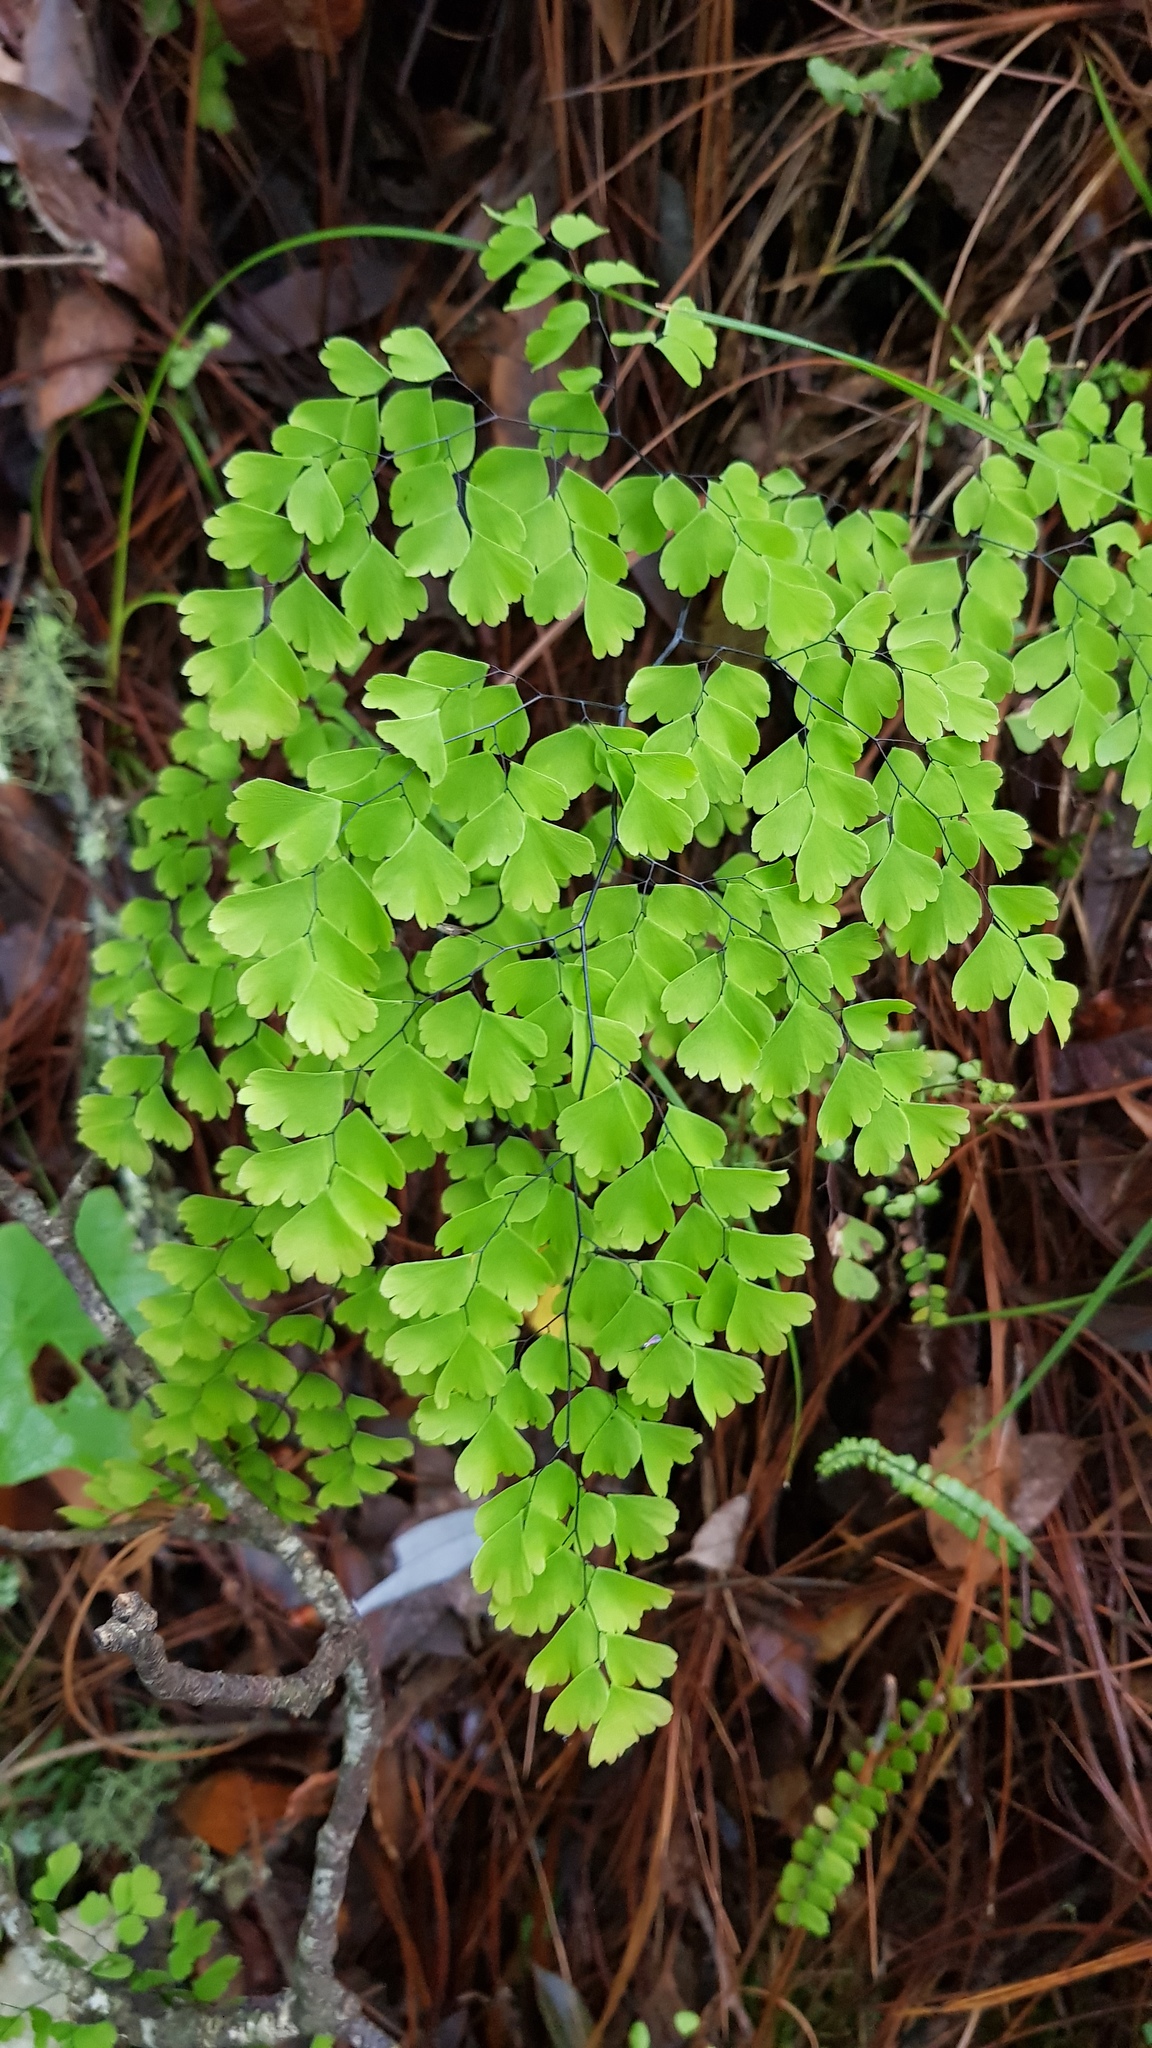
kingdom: Plantae
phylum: Tracheophyta
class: Polypodiopsida
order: Polypodiales
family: Pteridaceae
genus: Adiantum
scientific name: Adiantum poiretii
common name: Mexican maidenhair
